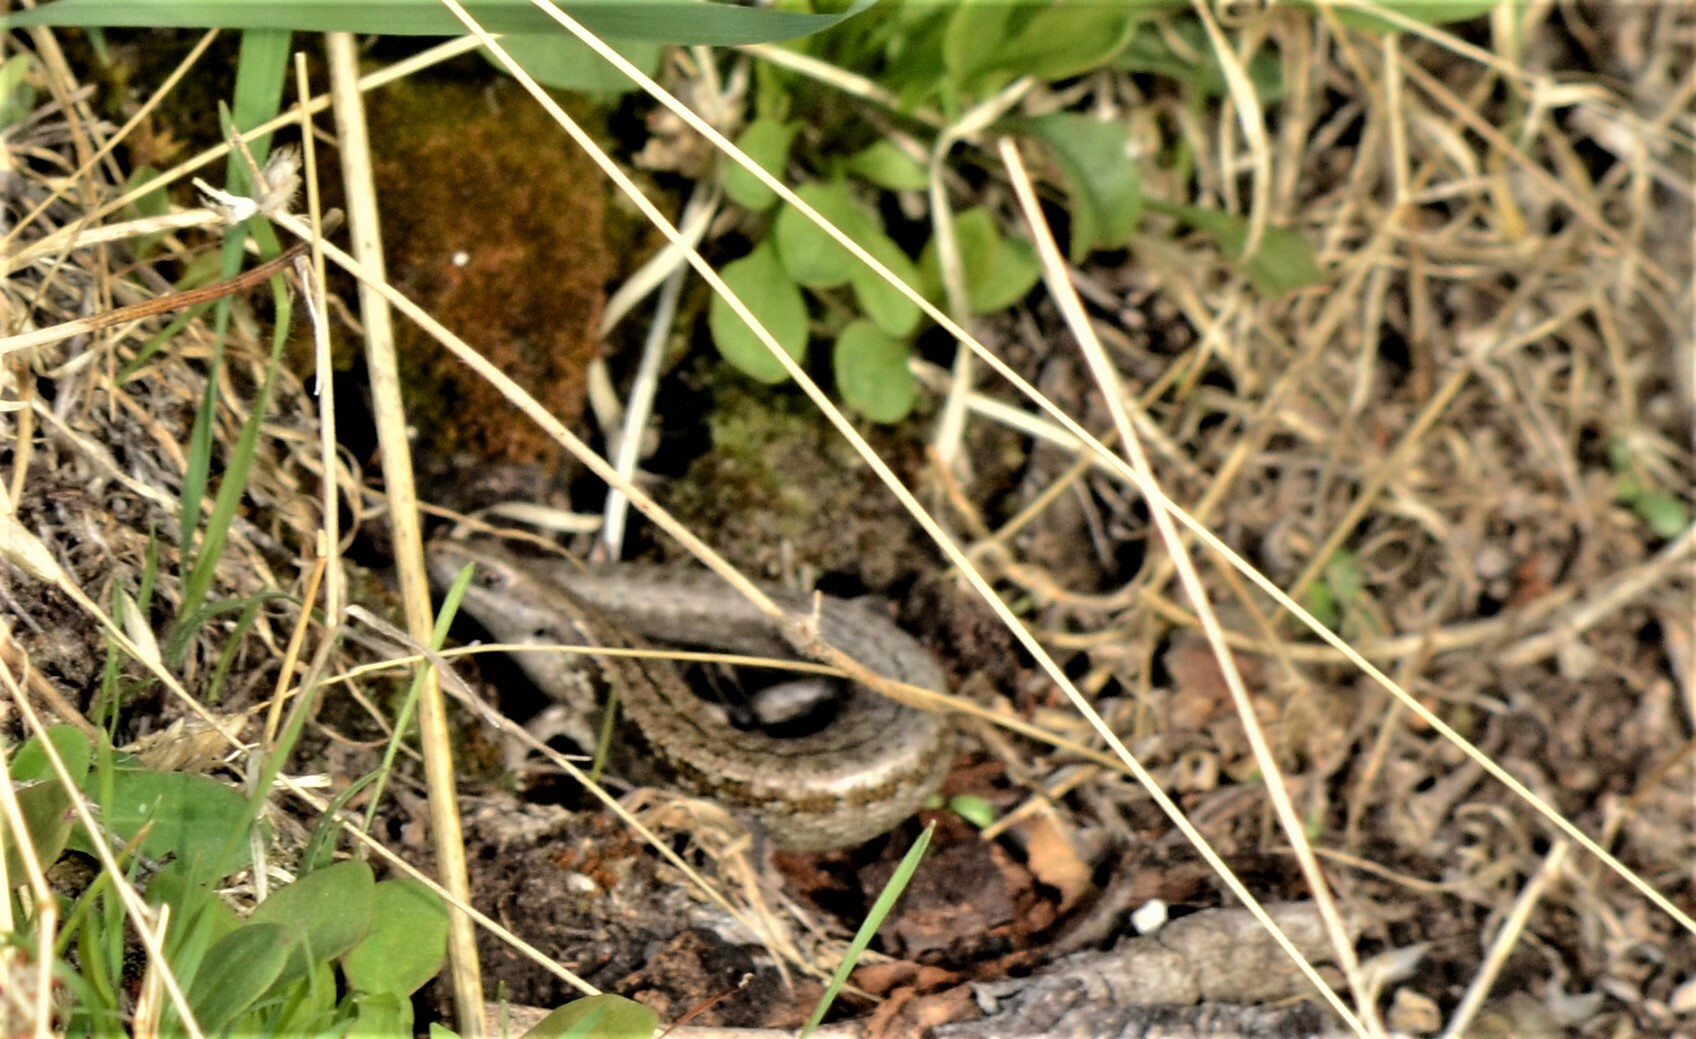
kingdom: Animalia
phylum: Chordata
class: Squamata
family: Scincidae
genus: Oligosoma
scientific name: Oligosoma maccanni
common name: Mccann’s skink
